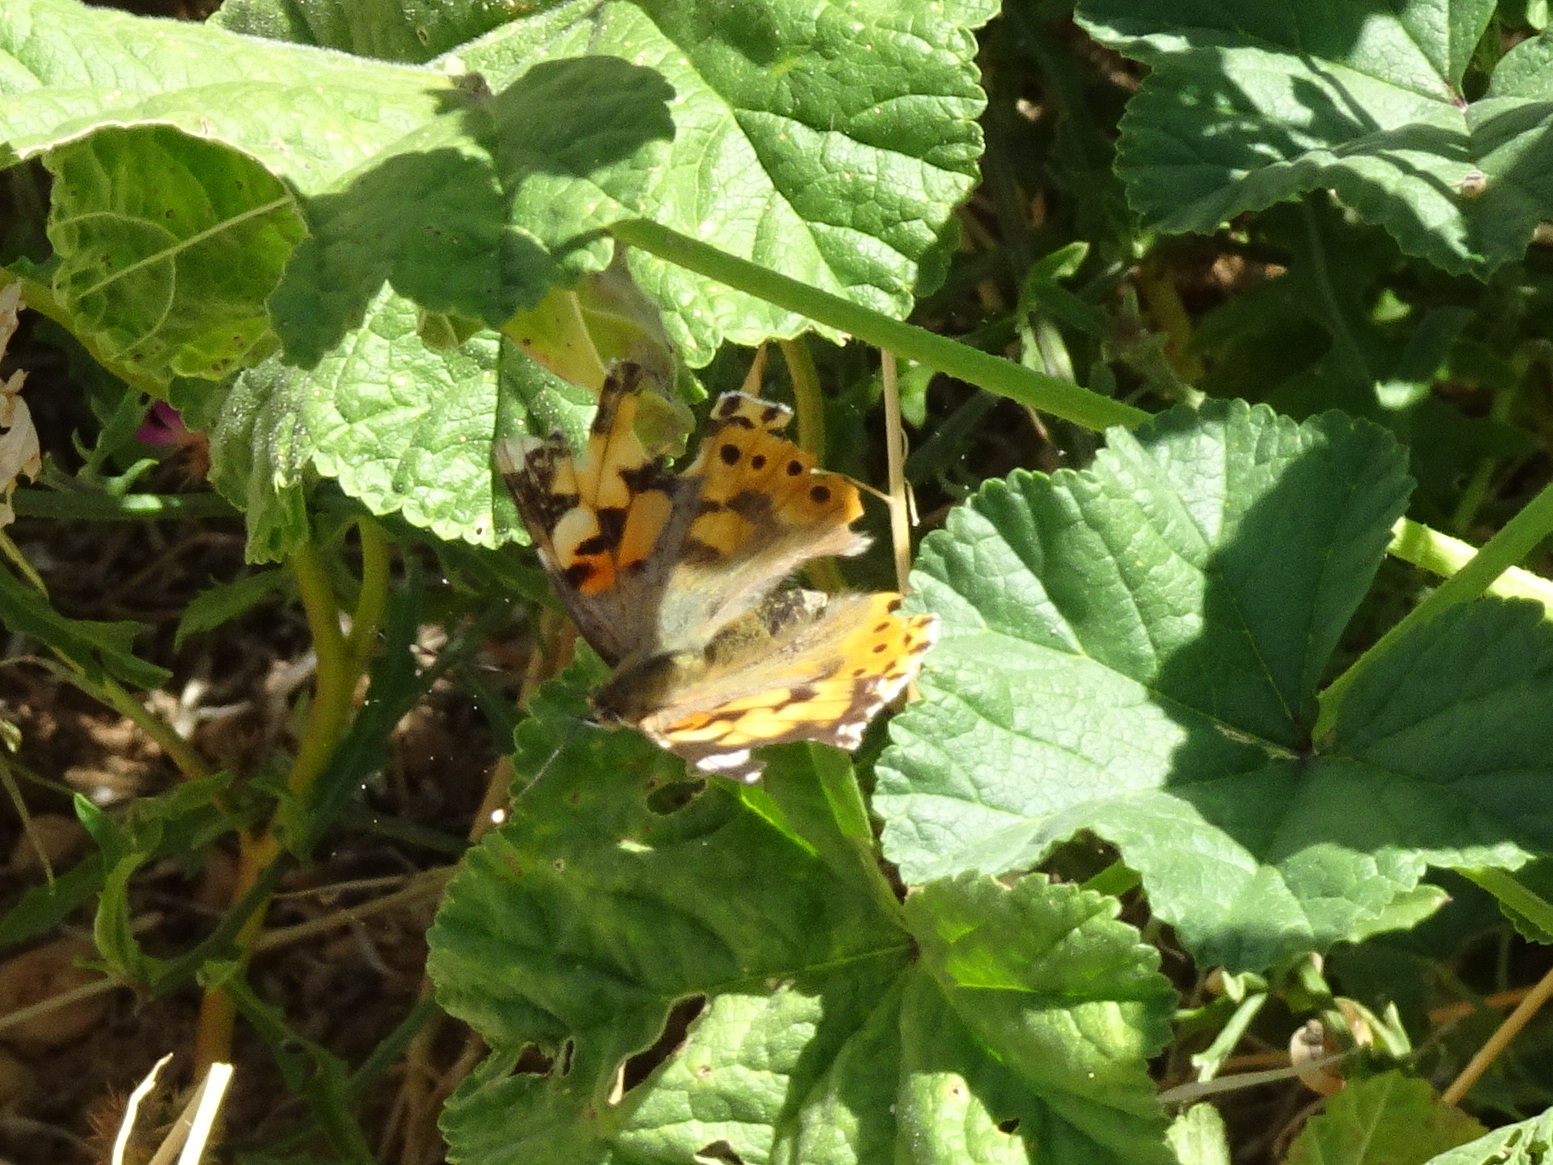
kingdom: Animalia
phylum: Arthropoda
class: Insecta
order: Lepidoptera
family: Nymphalidae
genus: Vanessa
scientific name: Vanessa cardui
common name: Painted lady
